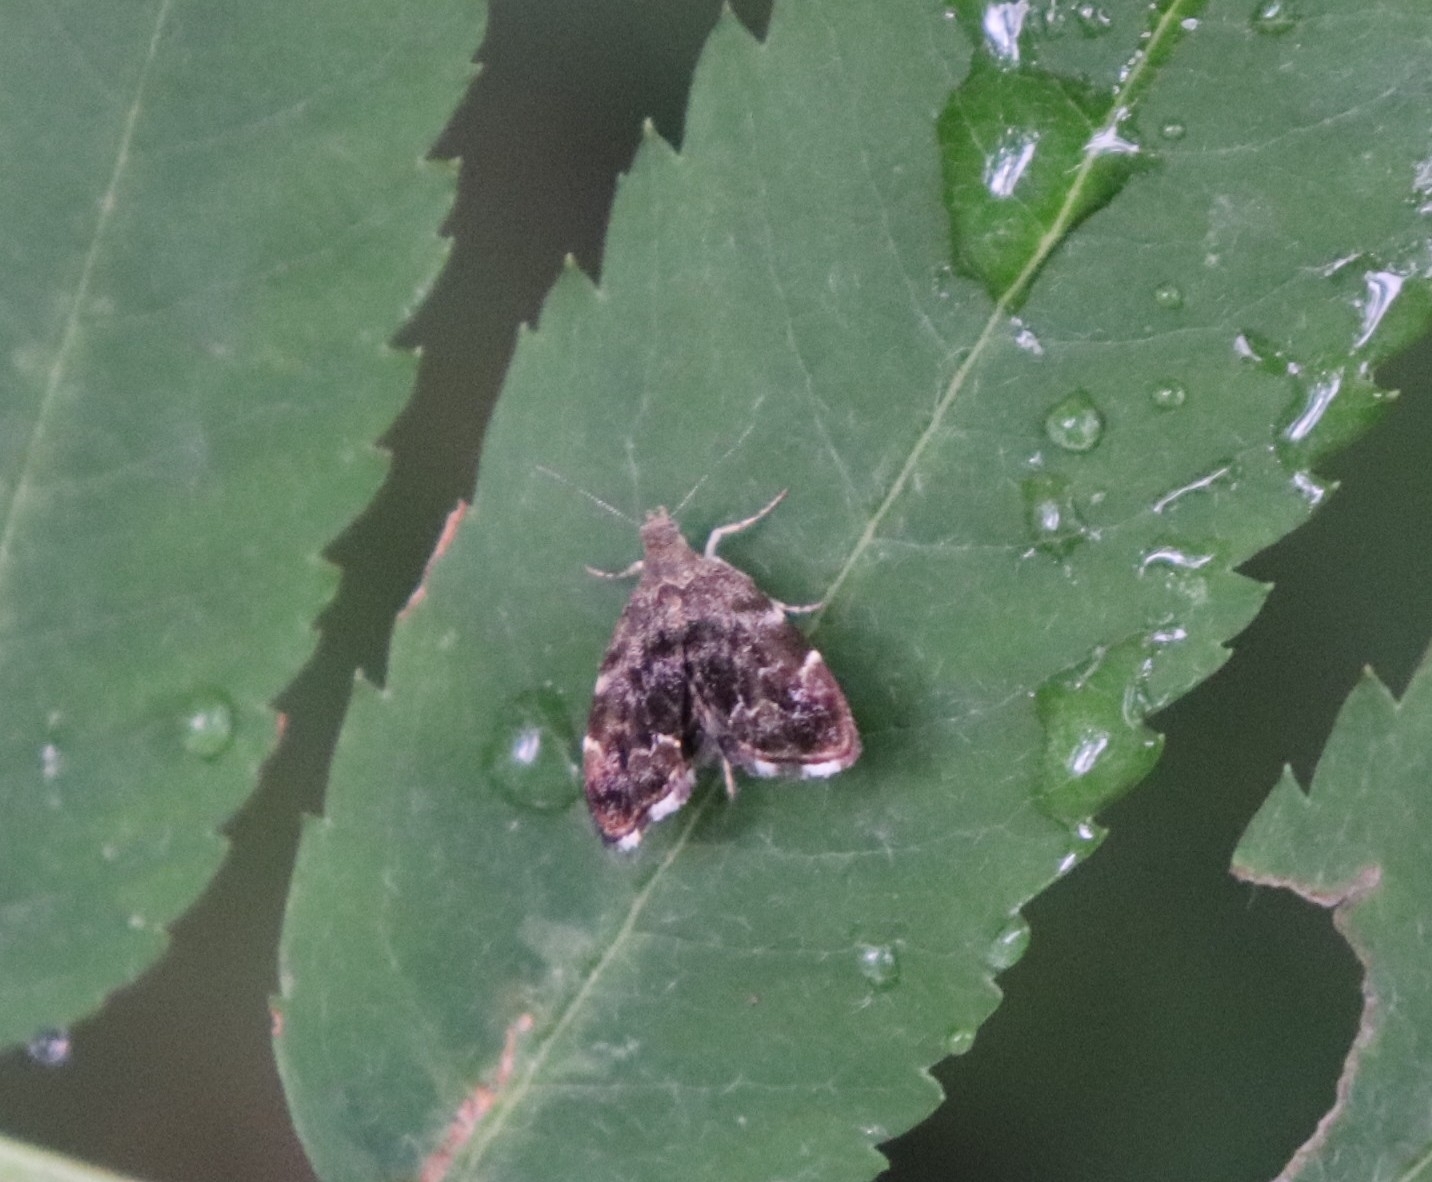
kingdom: Animalia
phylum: Arthropoda
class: Insecta
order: Lepidoptera
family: Choreutidae
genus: Anthophila
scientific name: Anthophila fabriciana
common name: Nettle-tap
